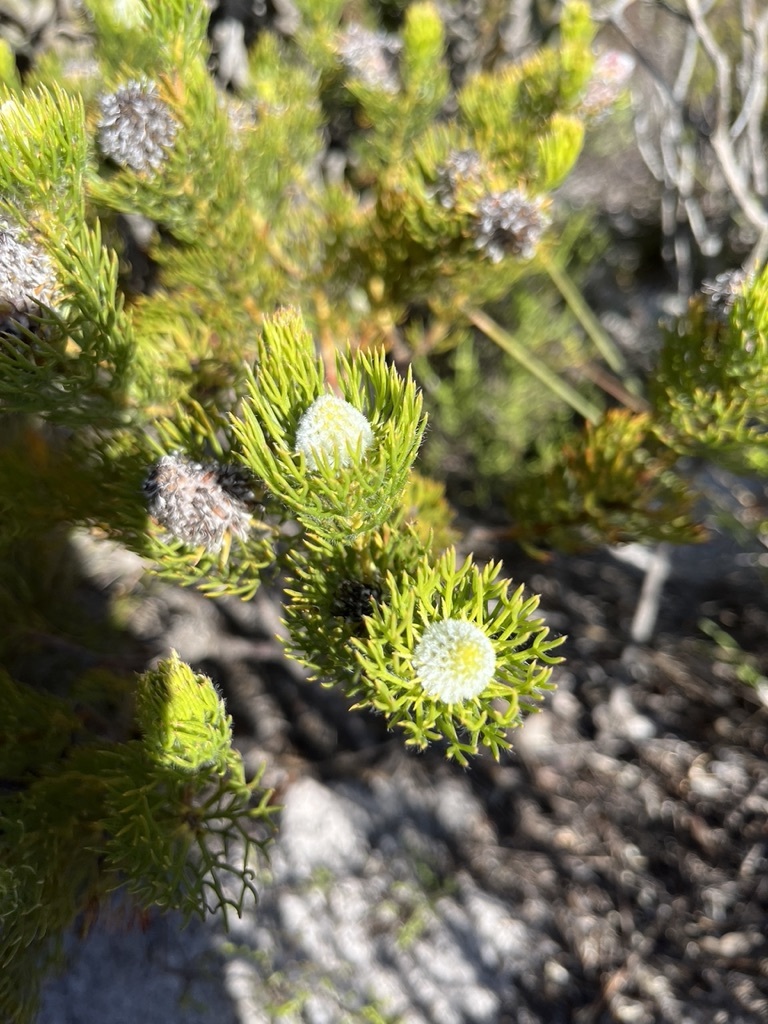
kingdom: Plantae
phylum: Tracheophyta
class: Magnoliopsida
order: Proteales
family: Proteaceae
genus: Serruria
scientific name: Serruria villosa
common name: Golden spiderhead
